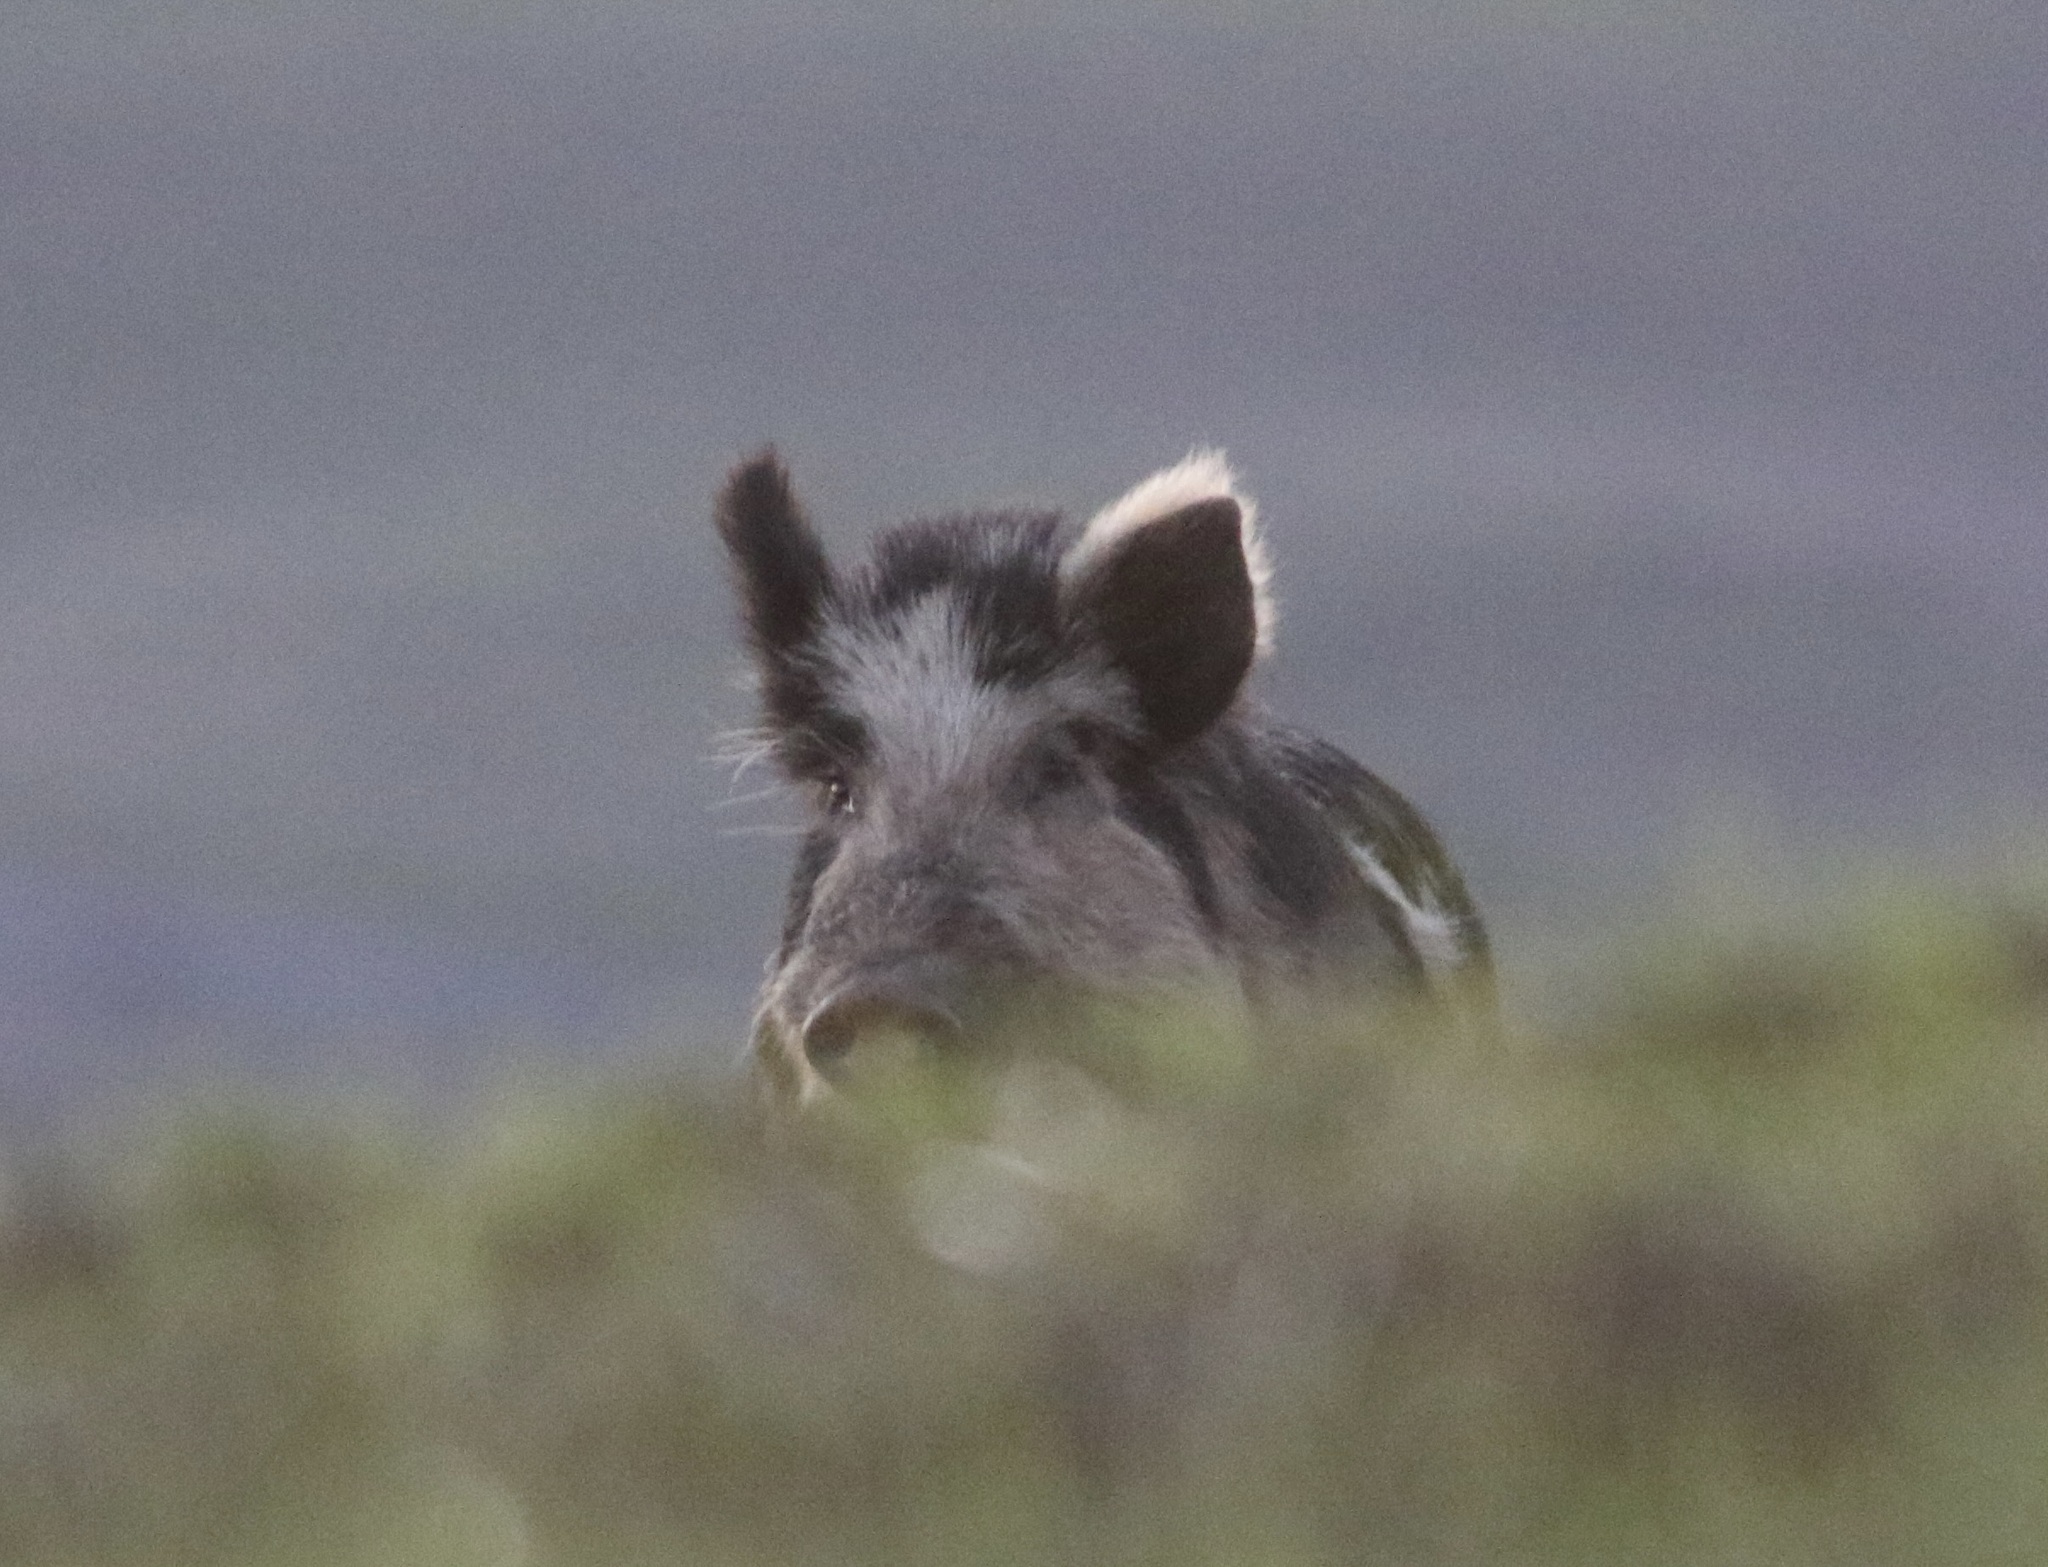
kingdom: Animalia
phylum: Chordata
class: Mammalia
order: Artiodactyla
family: Suidae
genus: Sus
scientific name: Sus scrofa
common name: Wild boar
